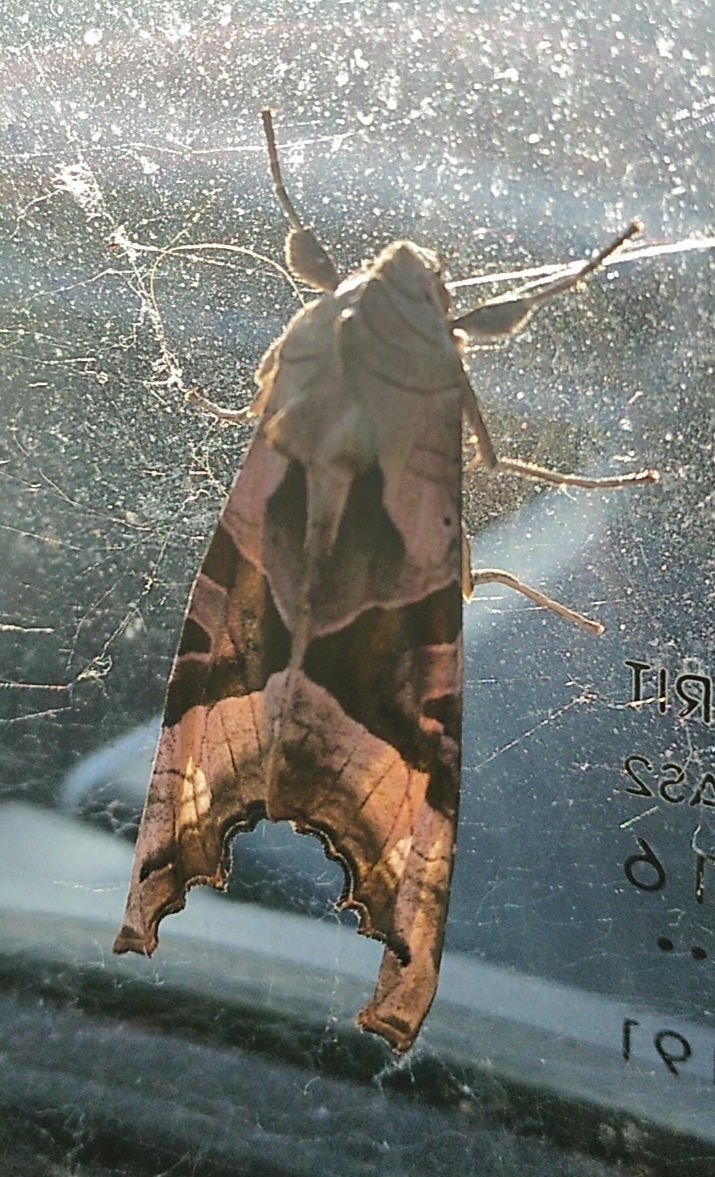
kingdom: Animalia
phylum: Arthropoda
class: Insecta
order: Lepidoptera
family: Noctuidae
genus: Phlogophora
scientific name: Phlogophora meticulosa
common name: Angle shades
